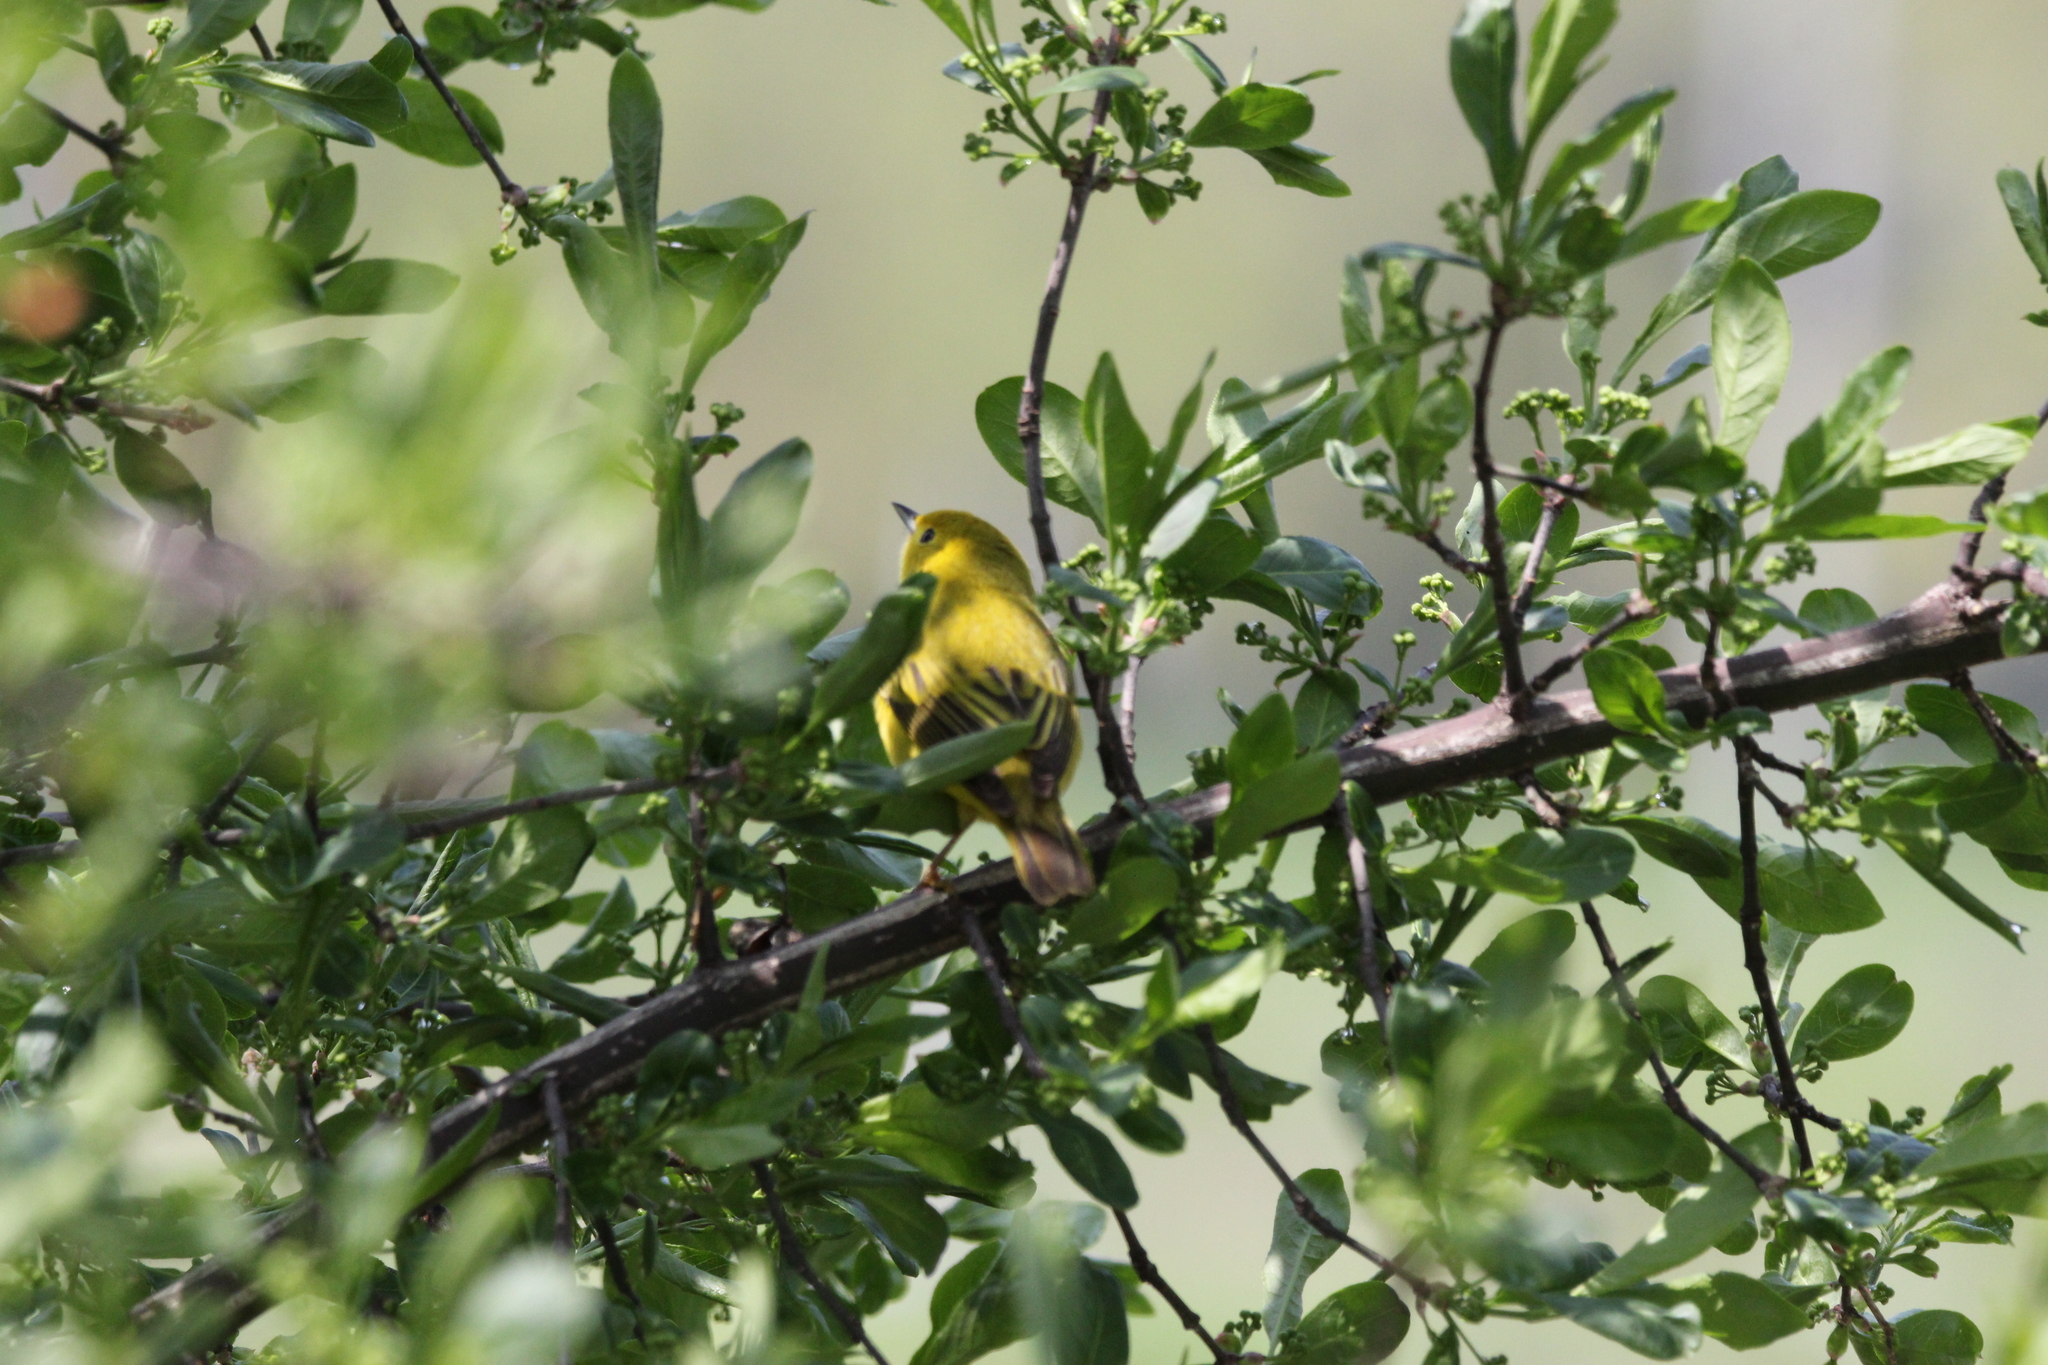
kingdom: Animalia
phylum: Chordata
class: Aves
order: Passeriformes
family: Parulidae
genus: Setophaga
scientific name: Setophaga petechia
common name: Yellow warbler
